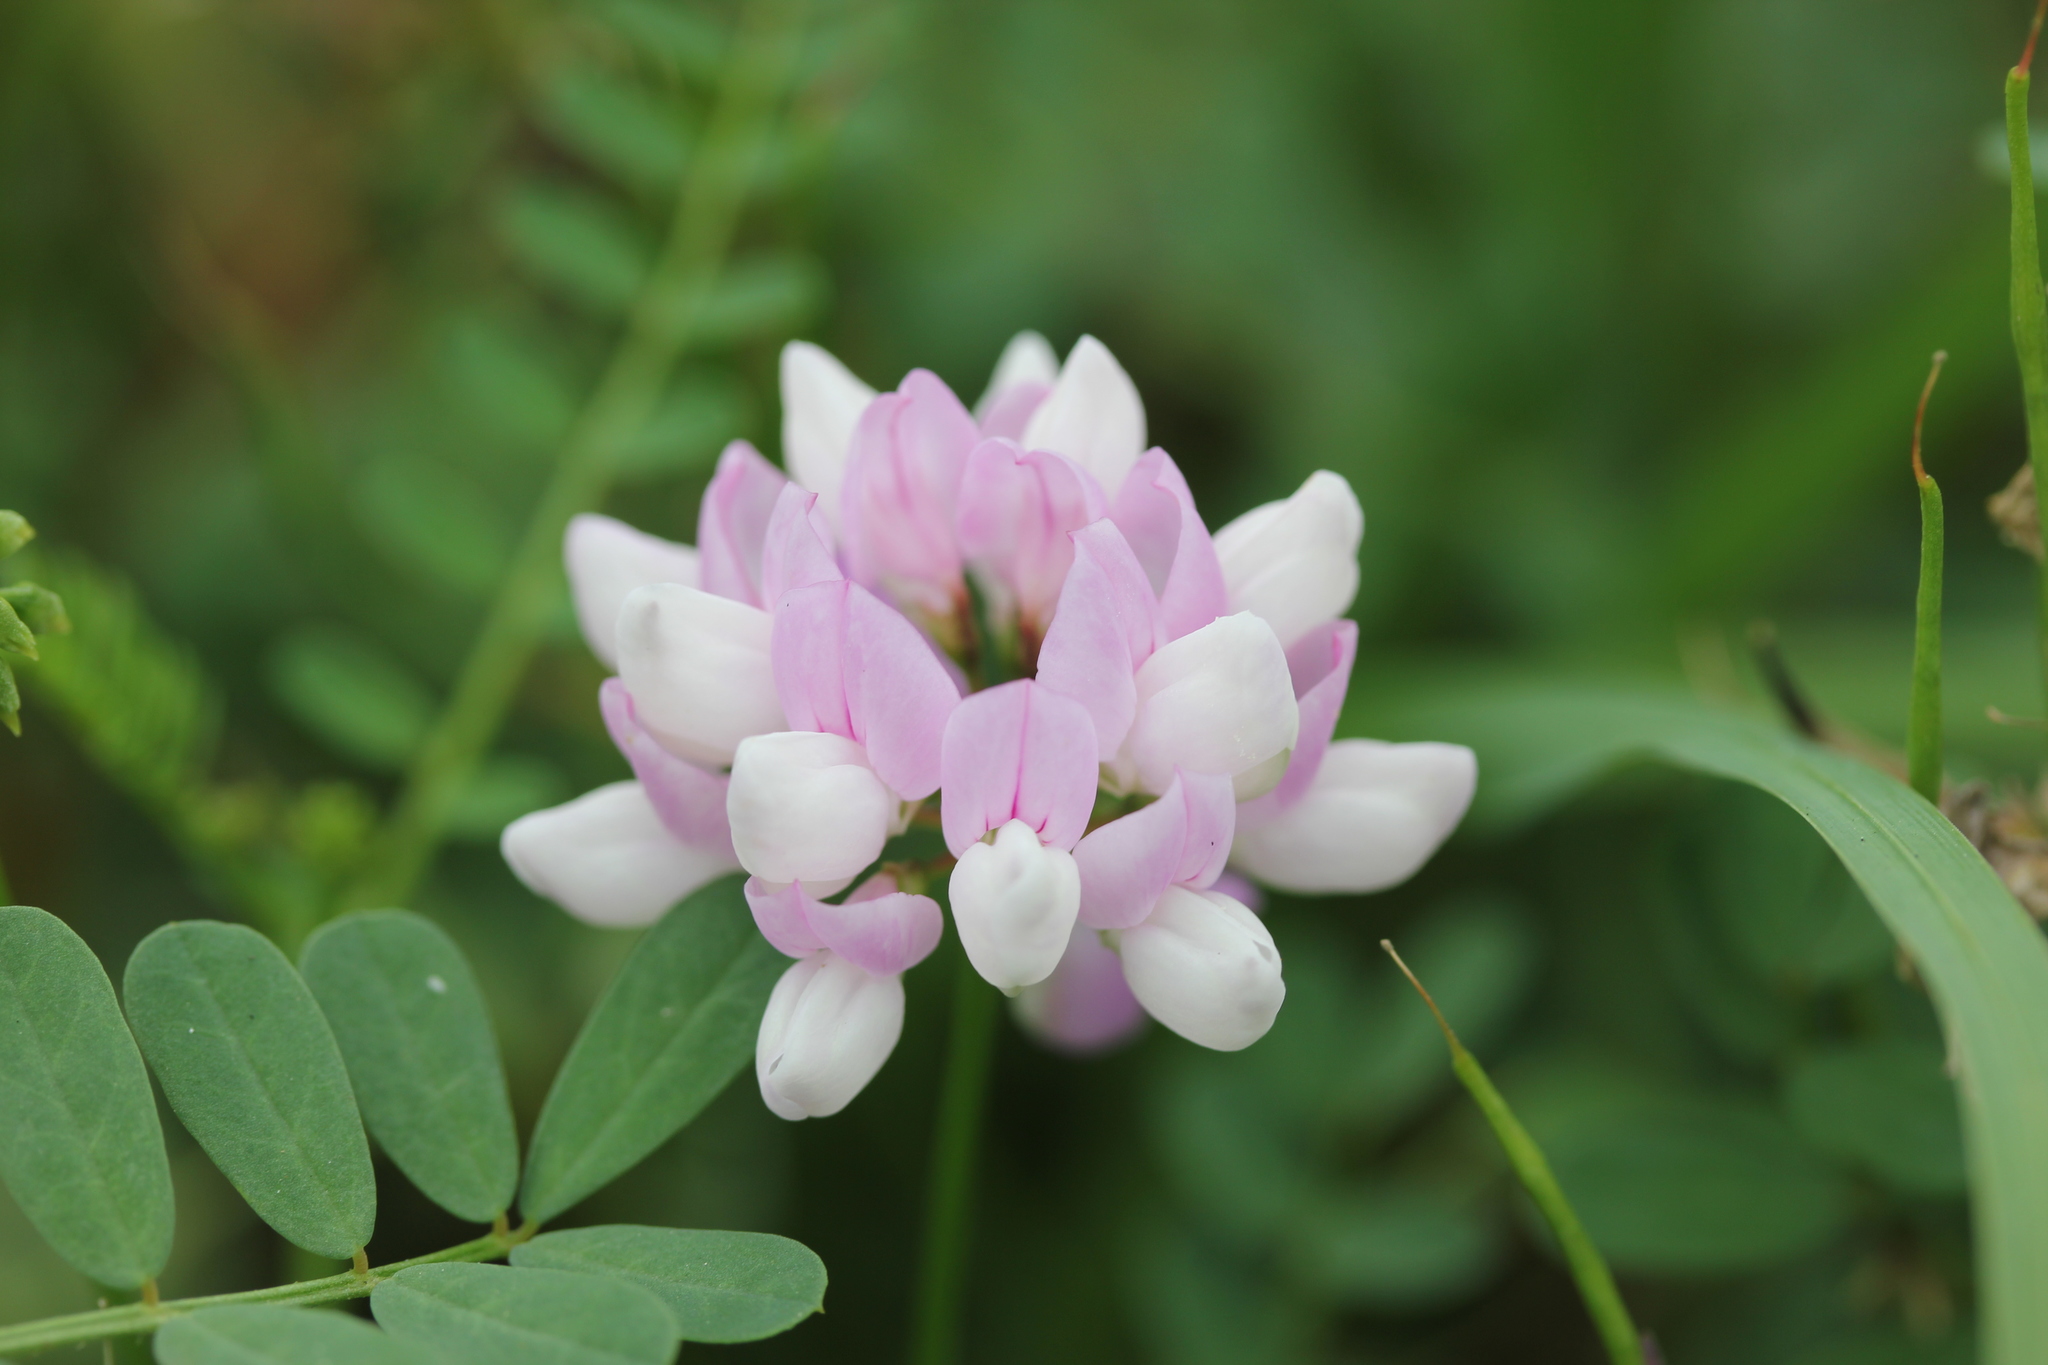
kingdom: Plantae
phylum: Tracheophyta
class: Magnoliopsida
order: Fabales
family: Fabaceae
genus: Coronilla
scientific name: Coronilla varia
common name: Crownvetch
